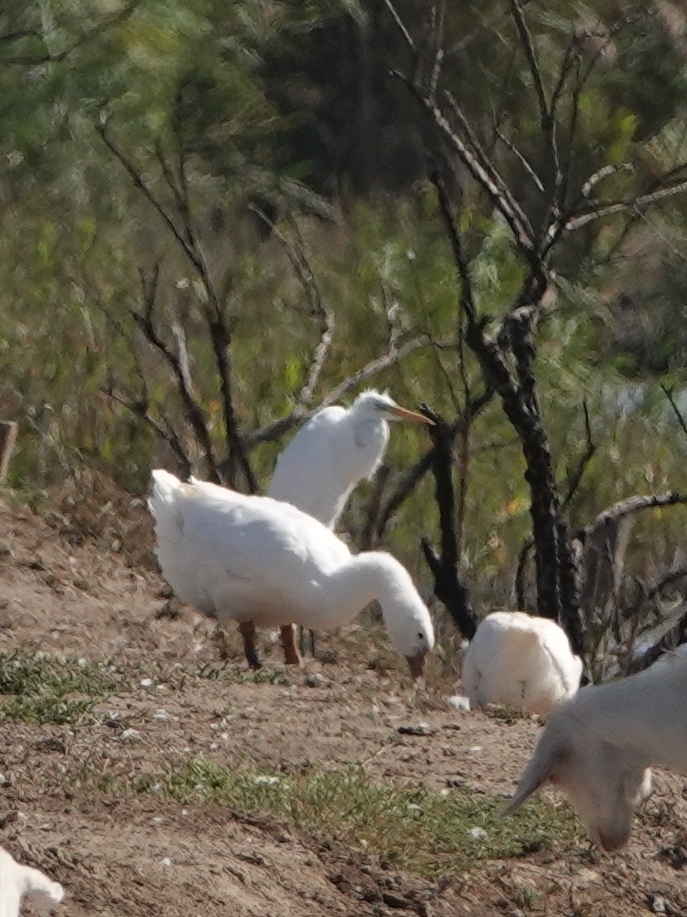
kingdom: Animalia
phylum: Chordata
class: Aves
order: Pelecaniformes
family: Ardeidae
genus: Ardea
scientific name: Ardea alba
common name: Great egret
